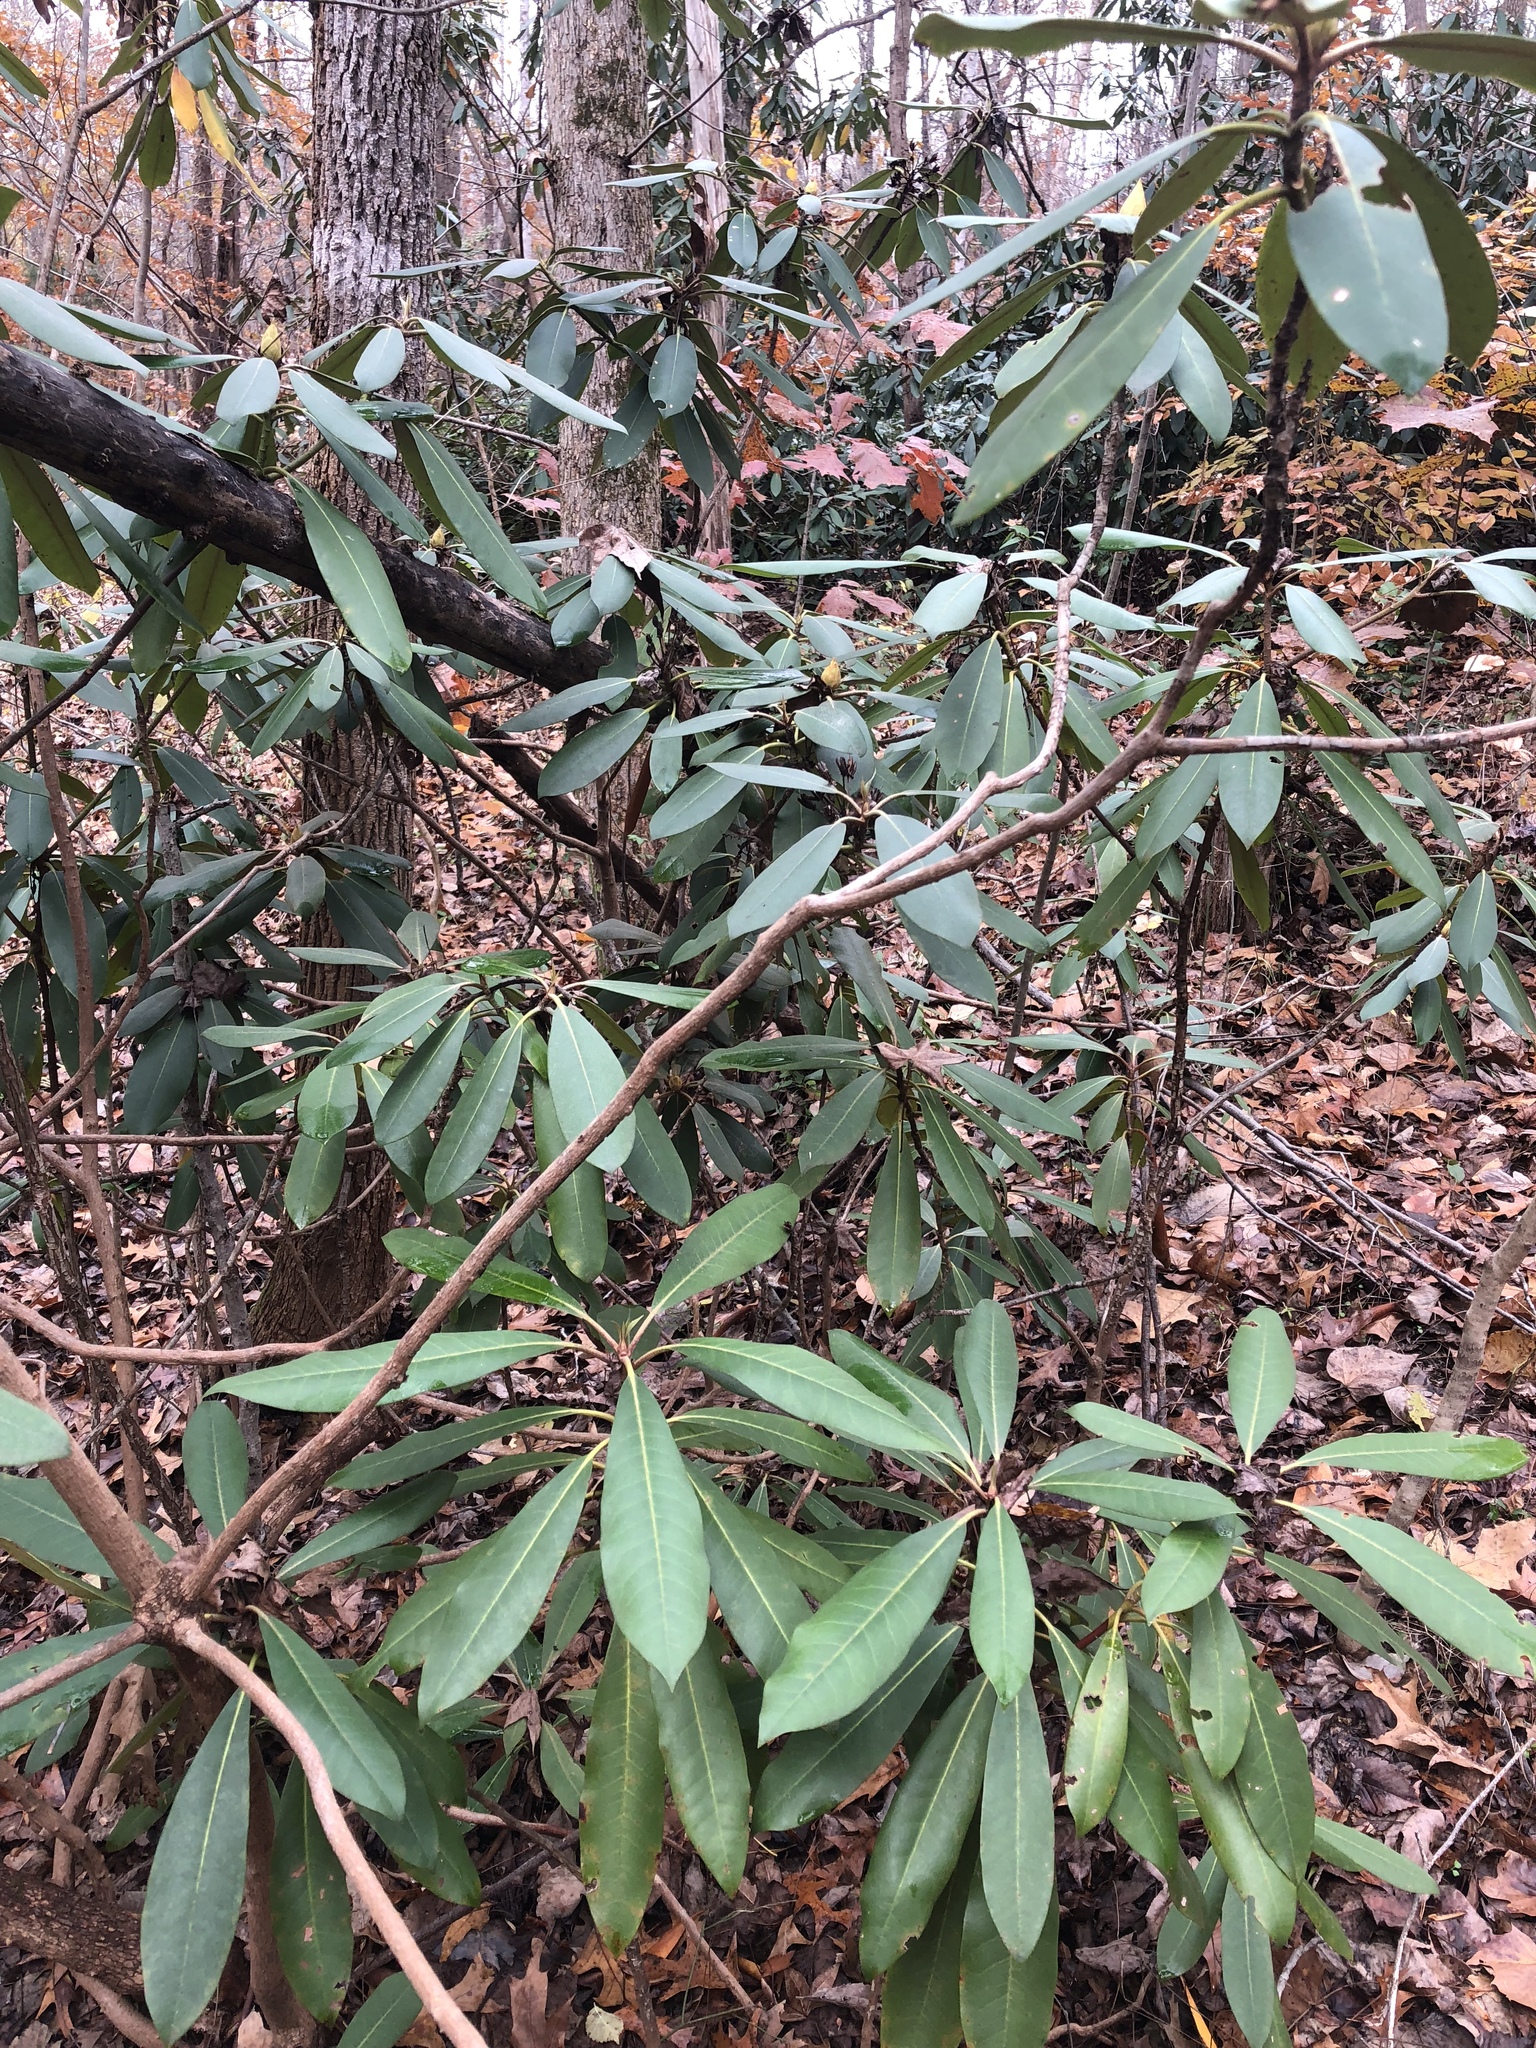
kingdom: Plantae
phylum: Tracheophyta
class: Magnoliopsida
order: Ericales
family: Ericaceae
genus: Rhododendron
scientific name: Rhododendron maximum
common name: Great rhododendron
